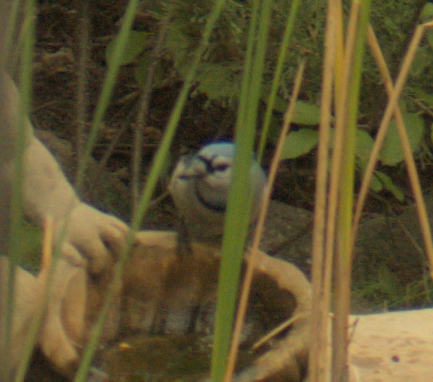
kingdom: Animalia
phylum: Chordata
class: Aves
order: Passeriformes
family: Corvidae
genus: Cyanocitta
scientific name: Cyanocitta cristata
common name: Blue jay
